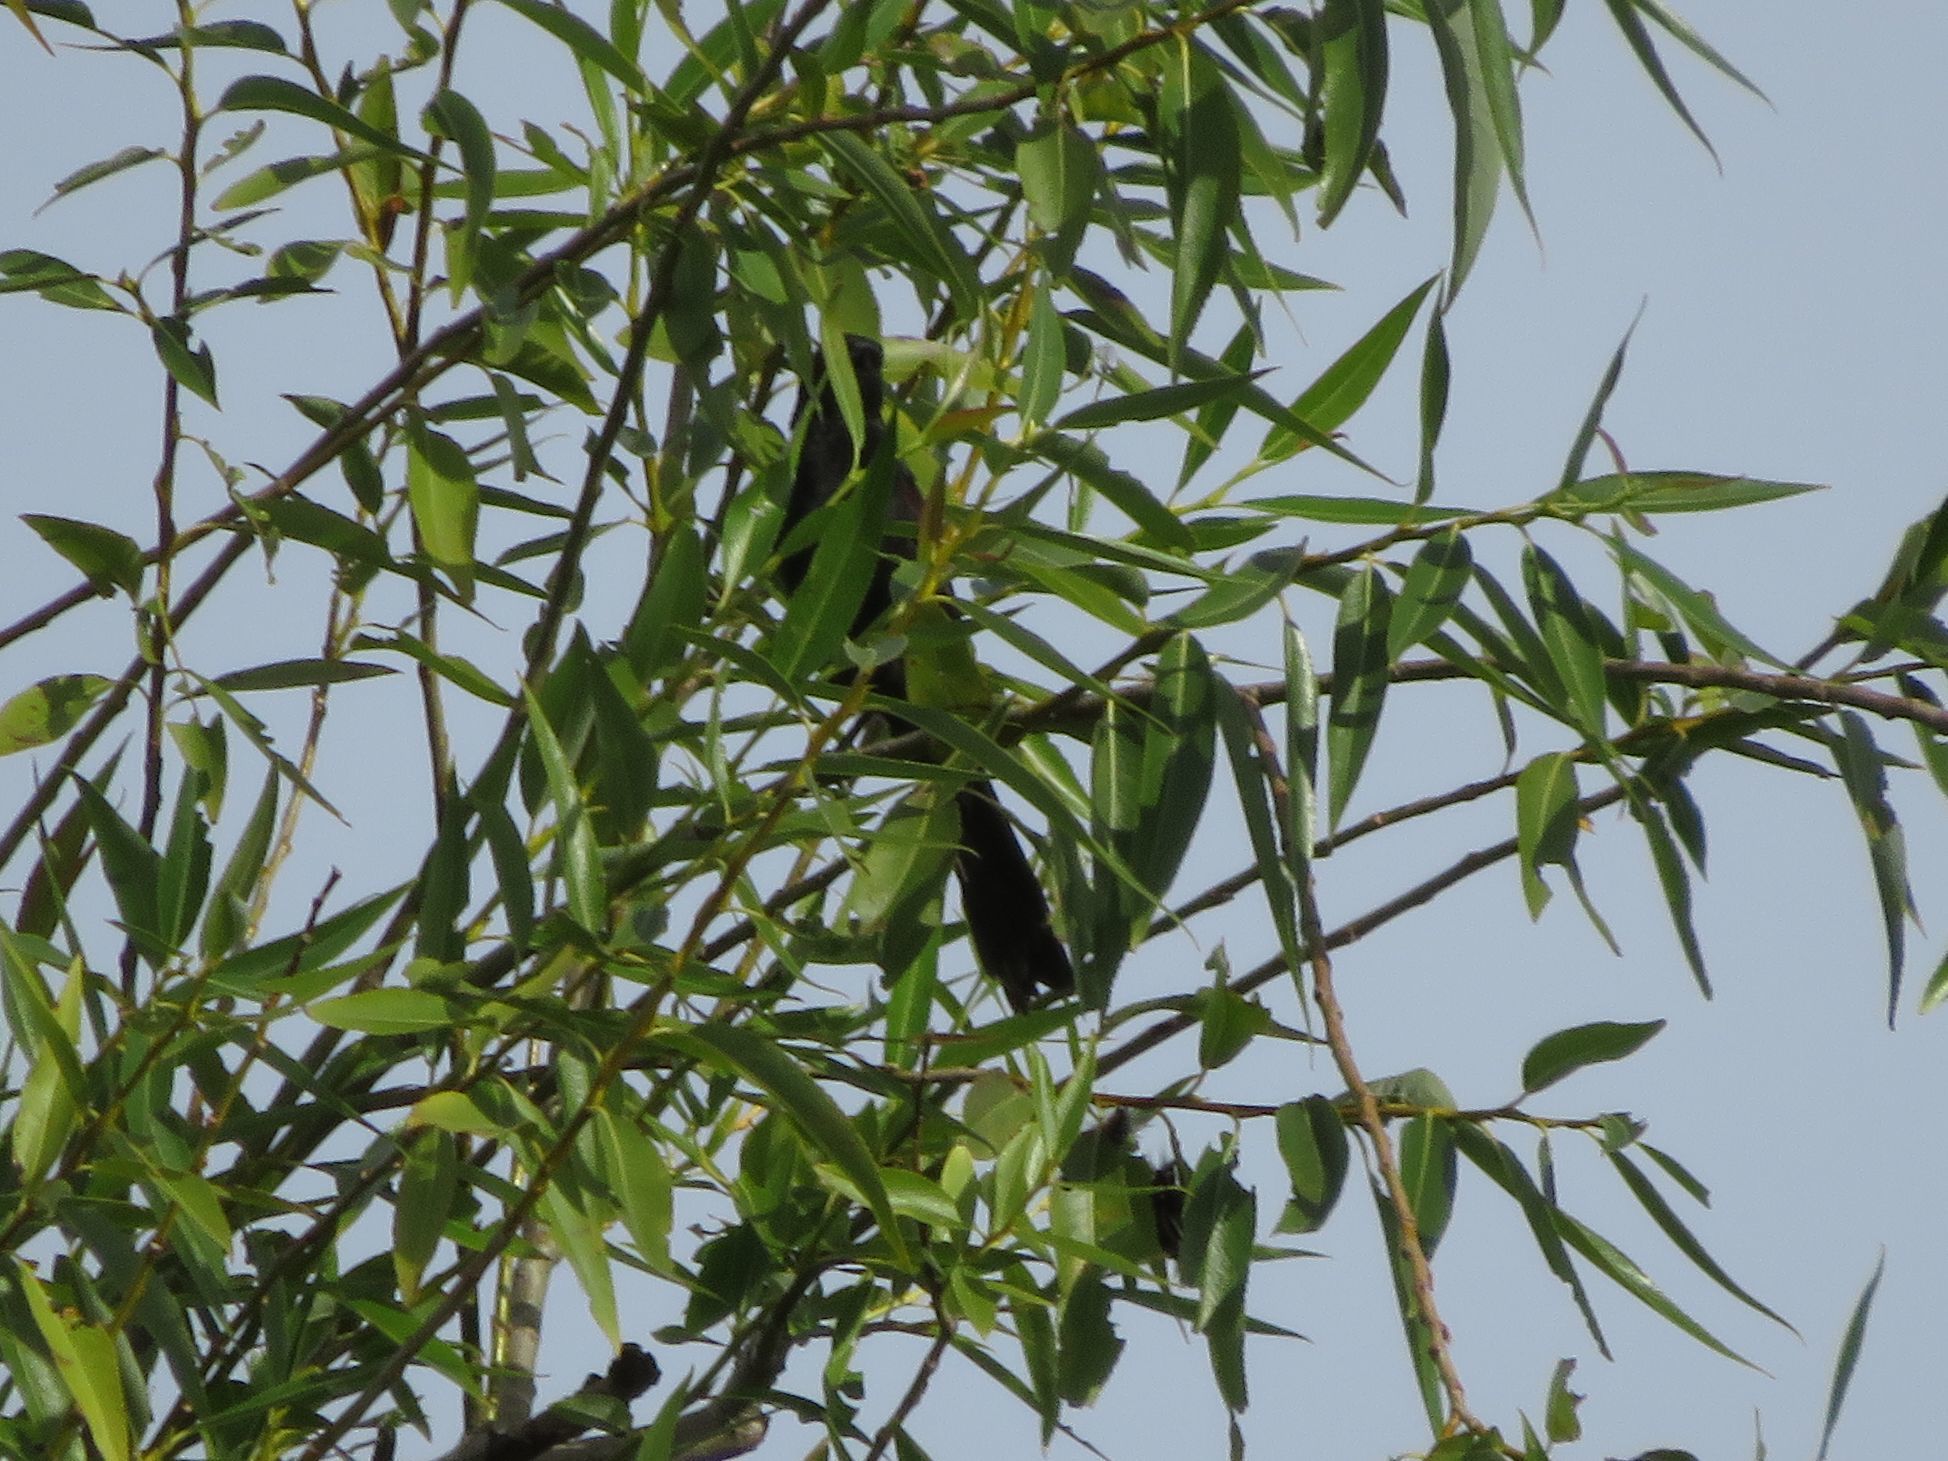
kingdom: Animalia
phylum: Chordata
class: Aves
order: Passeriformes
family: Icteridae
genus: Icterus
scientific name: Icterus cayanensis
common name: Epaulet oriole
